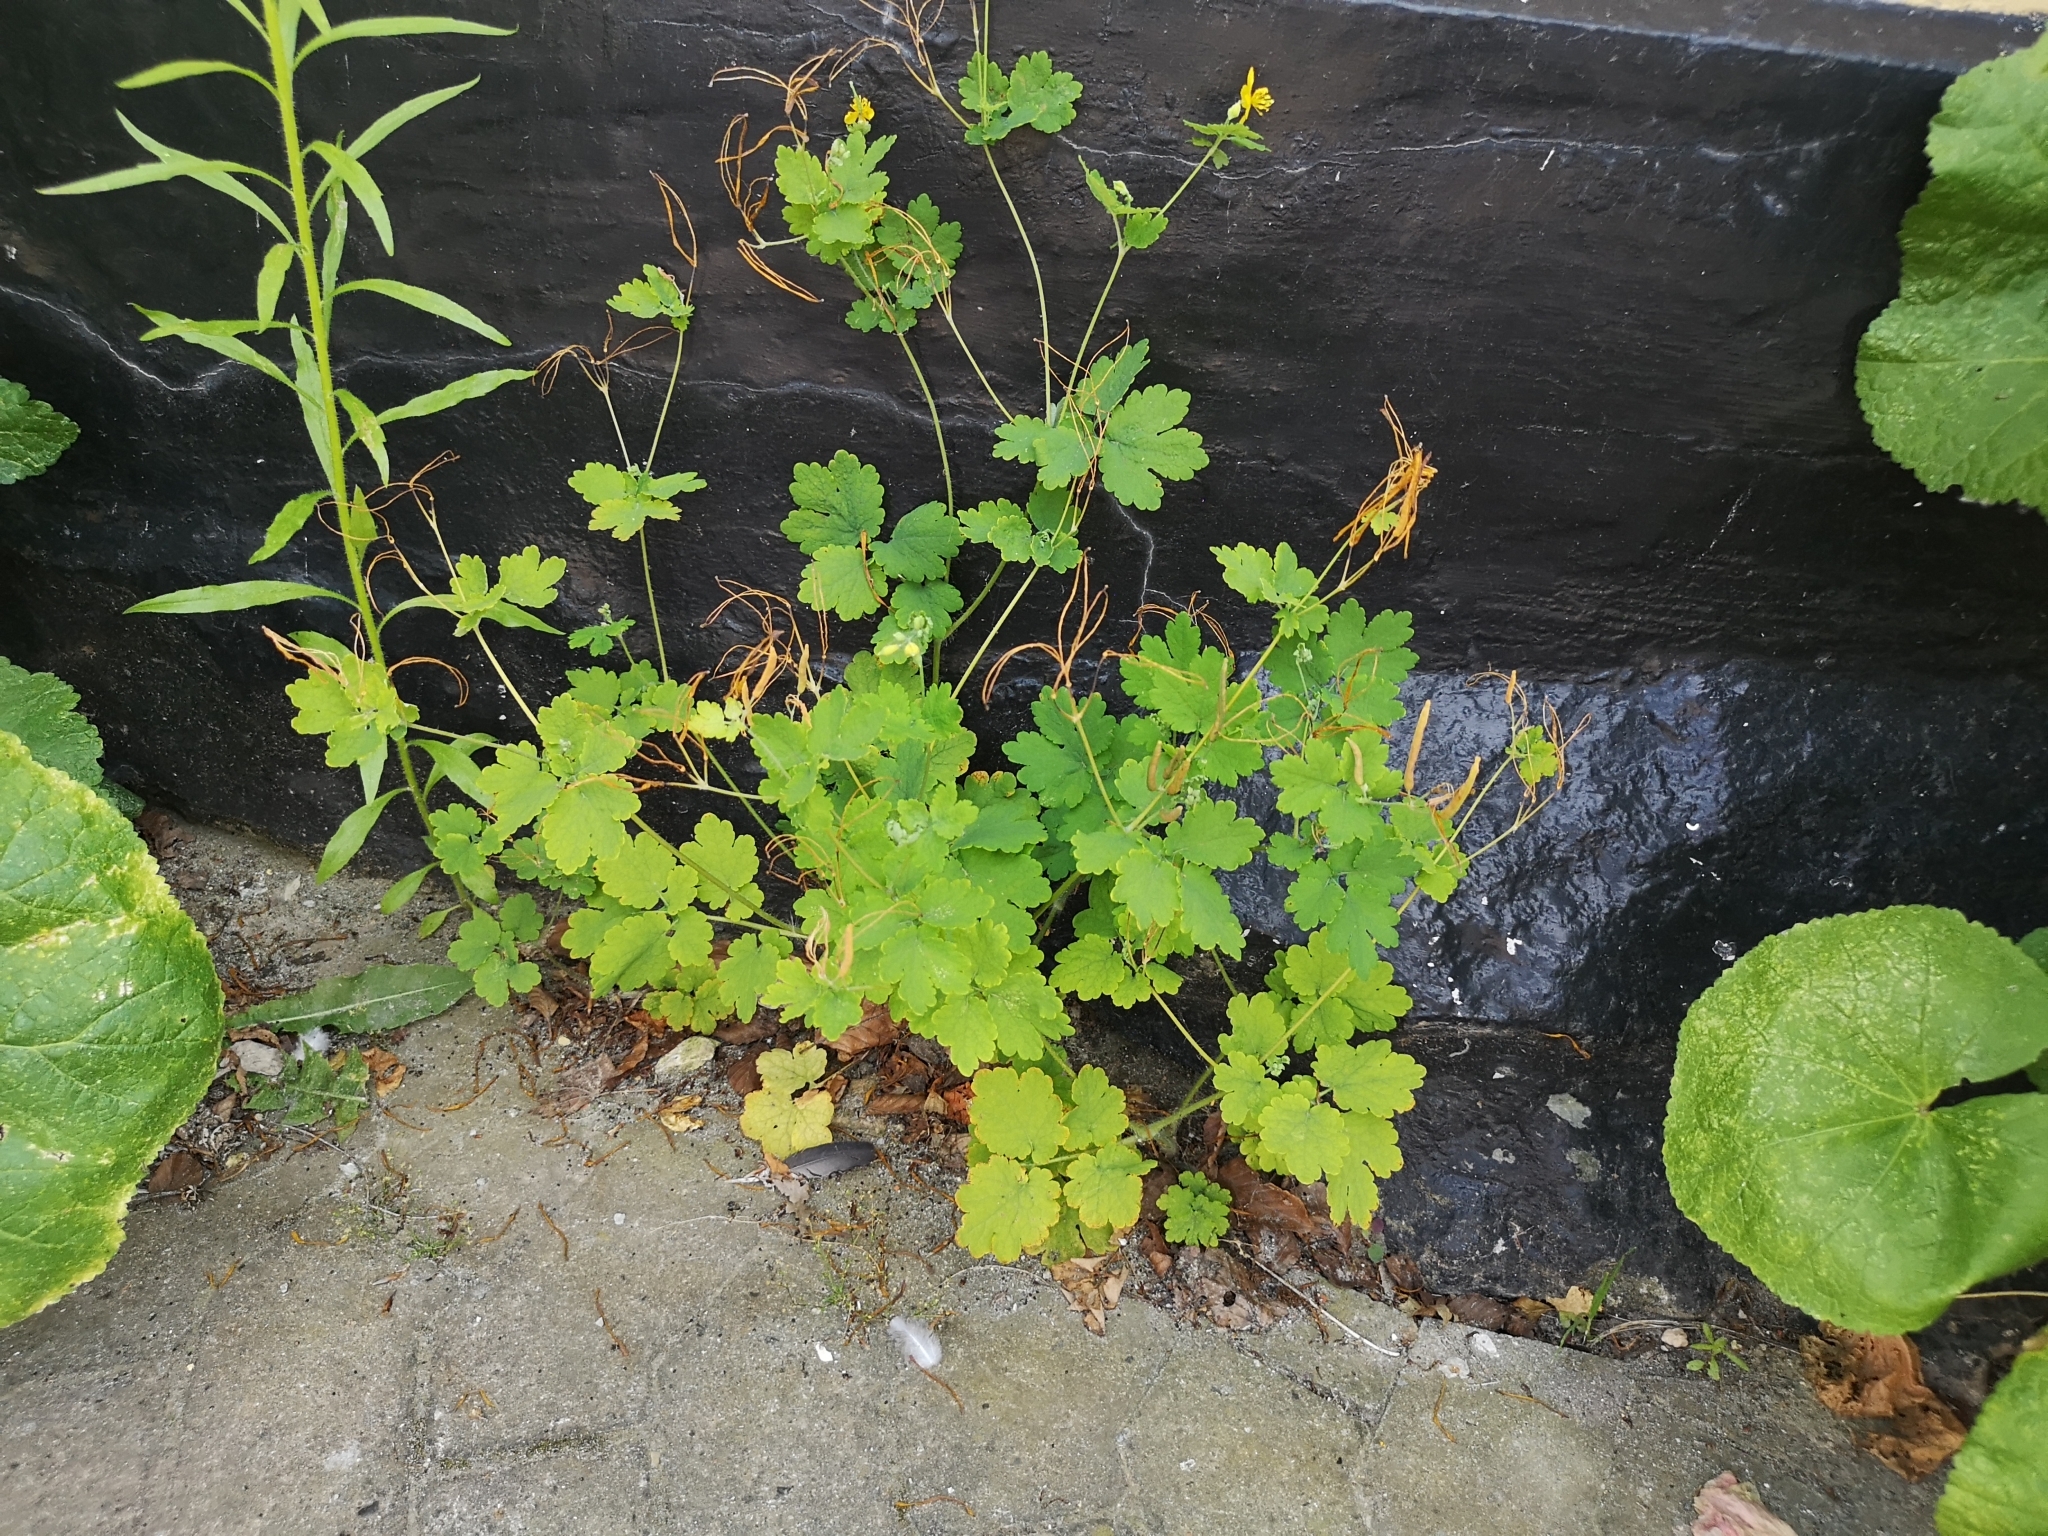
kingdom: Plantae
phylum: Tracheophyta
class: Magnoliopsida
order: Ranunculales
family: Papaveraceae
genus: Chelidonium
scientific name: Chelidonium majus
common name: Greater celandine
